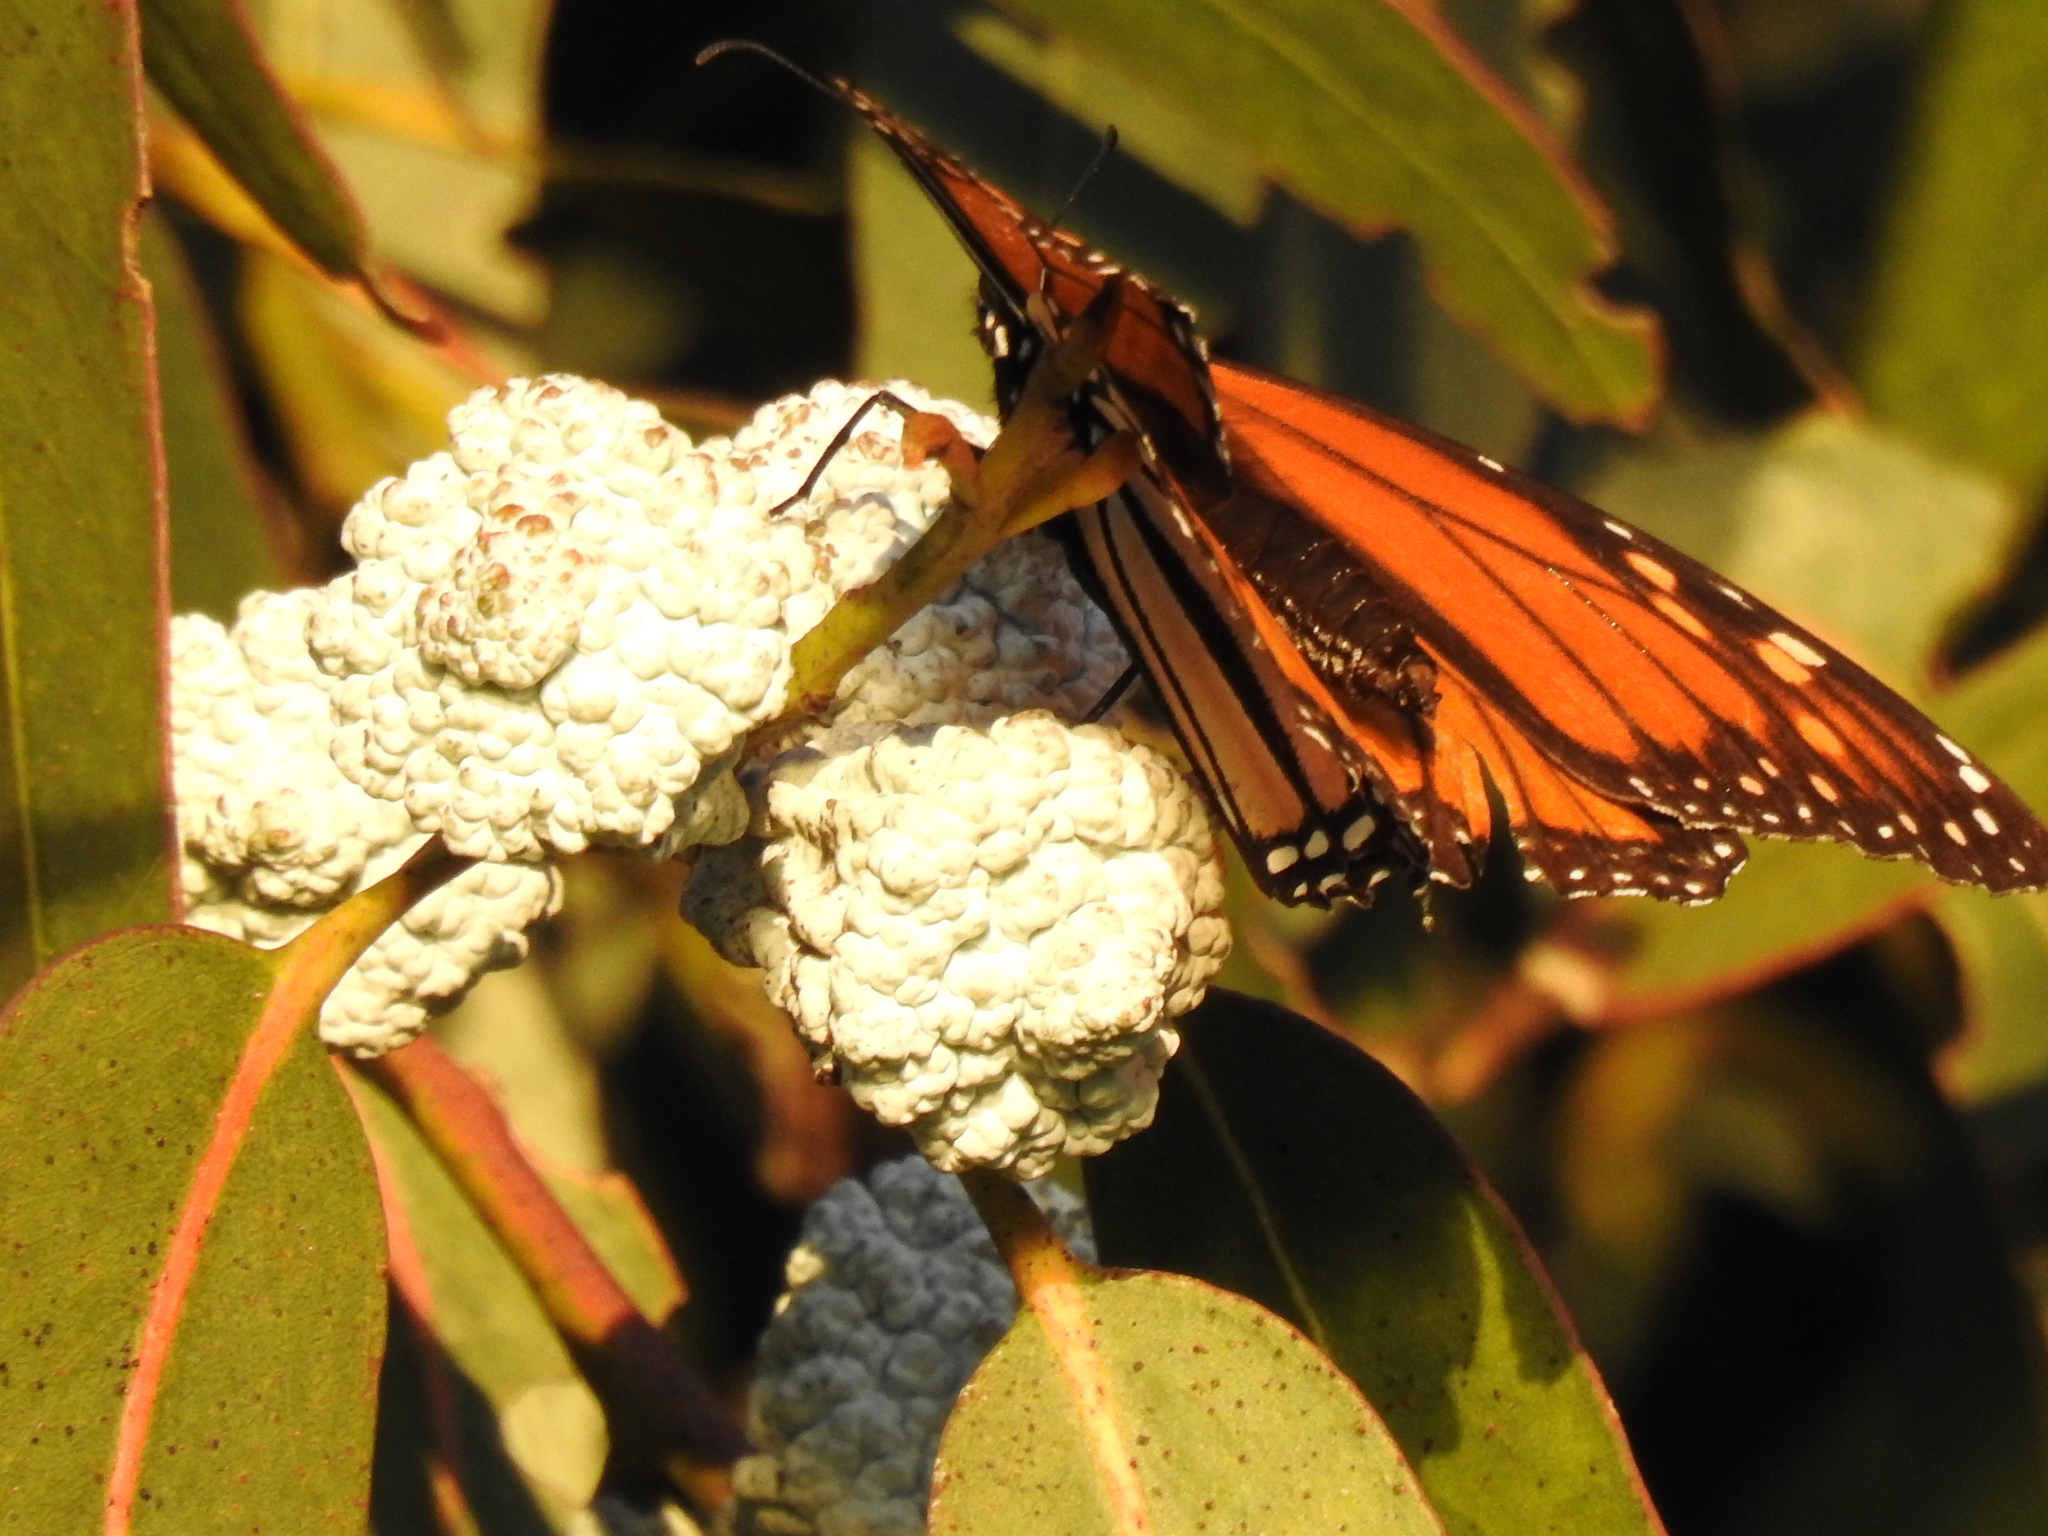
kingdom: Animalia
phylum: Arthropoda
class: Insecta
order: Lepidoptera
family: Nymphalidae
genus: Danaus
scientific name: Danaus plexippus
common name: Monarch
